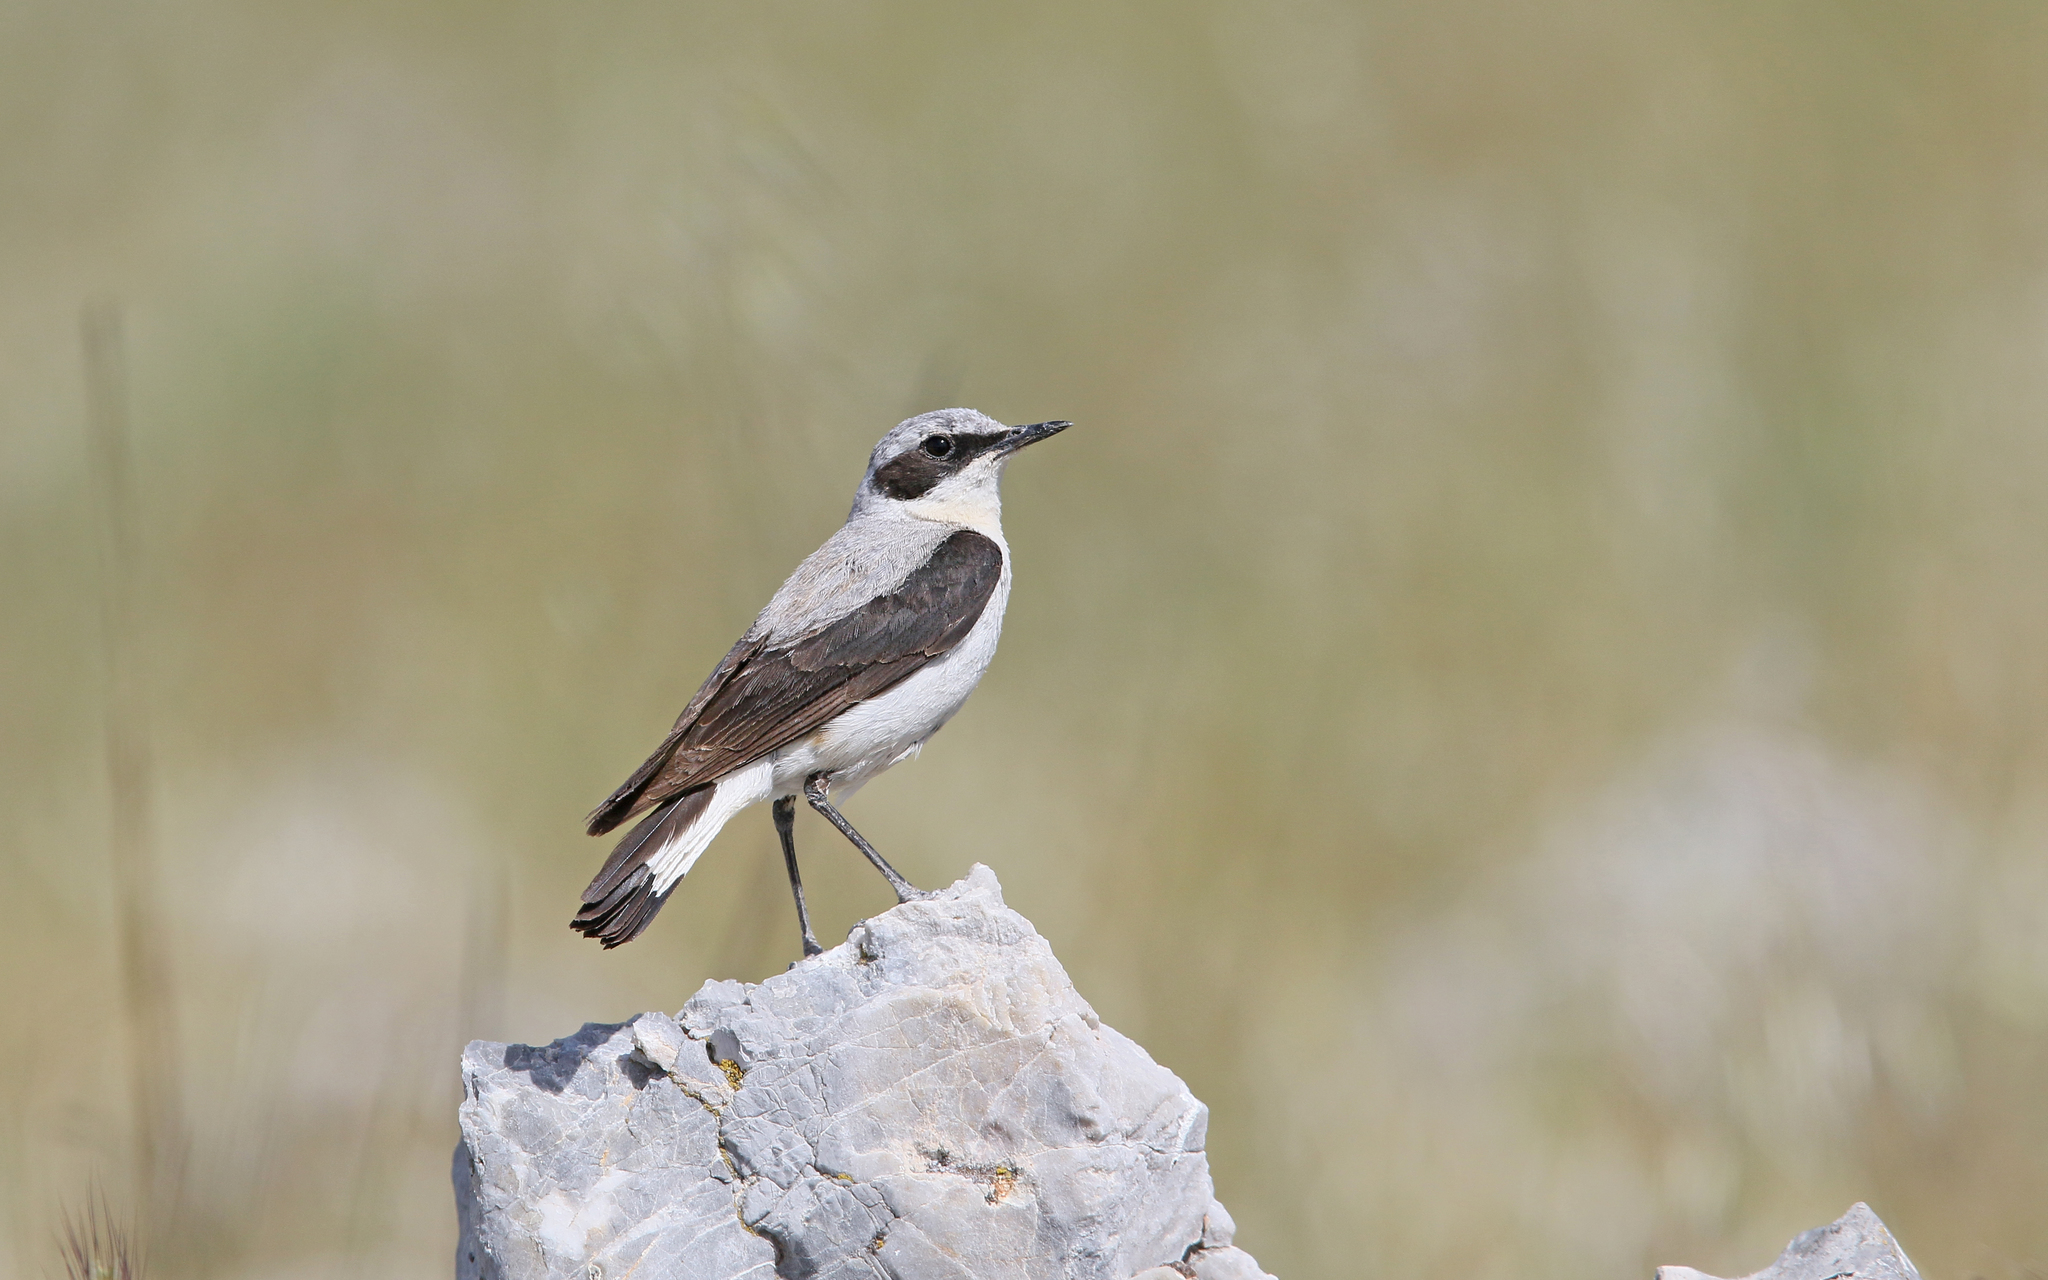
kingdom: Animalia
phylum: Chordata
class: Aves
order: Passeriformes
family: Muscicapidae
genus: Oenanthe
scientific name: Oenanthe oenanthe
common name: Northern wheatear
